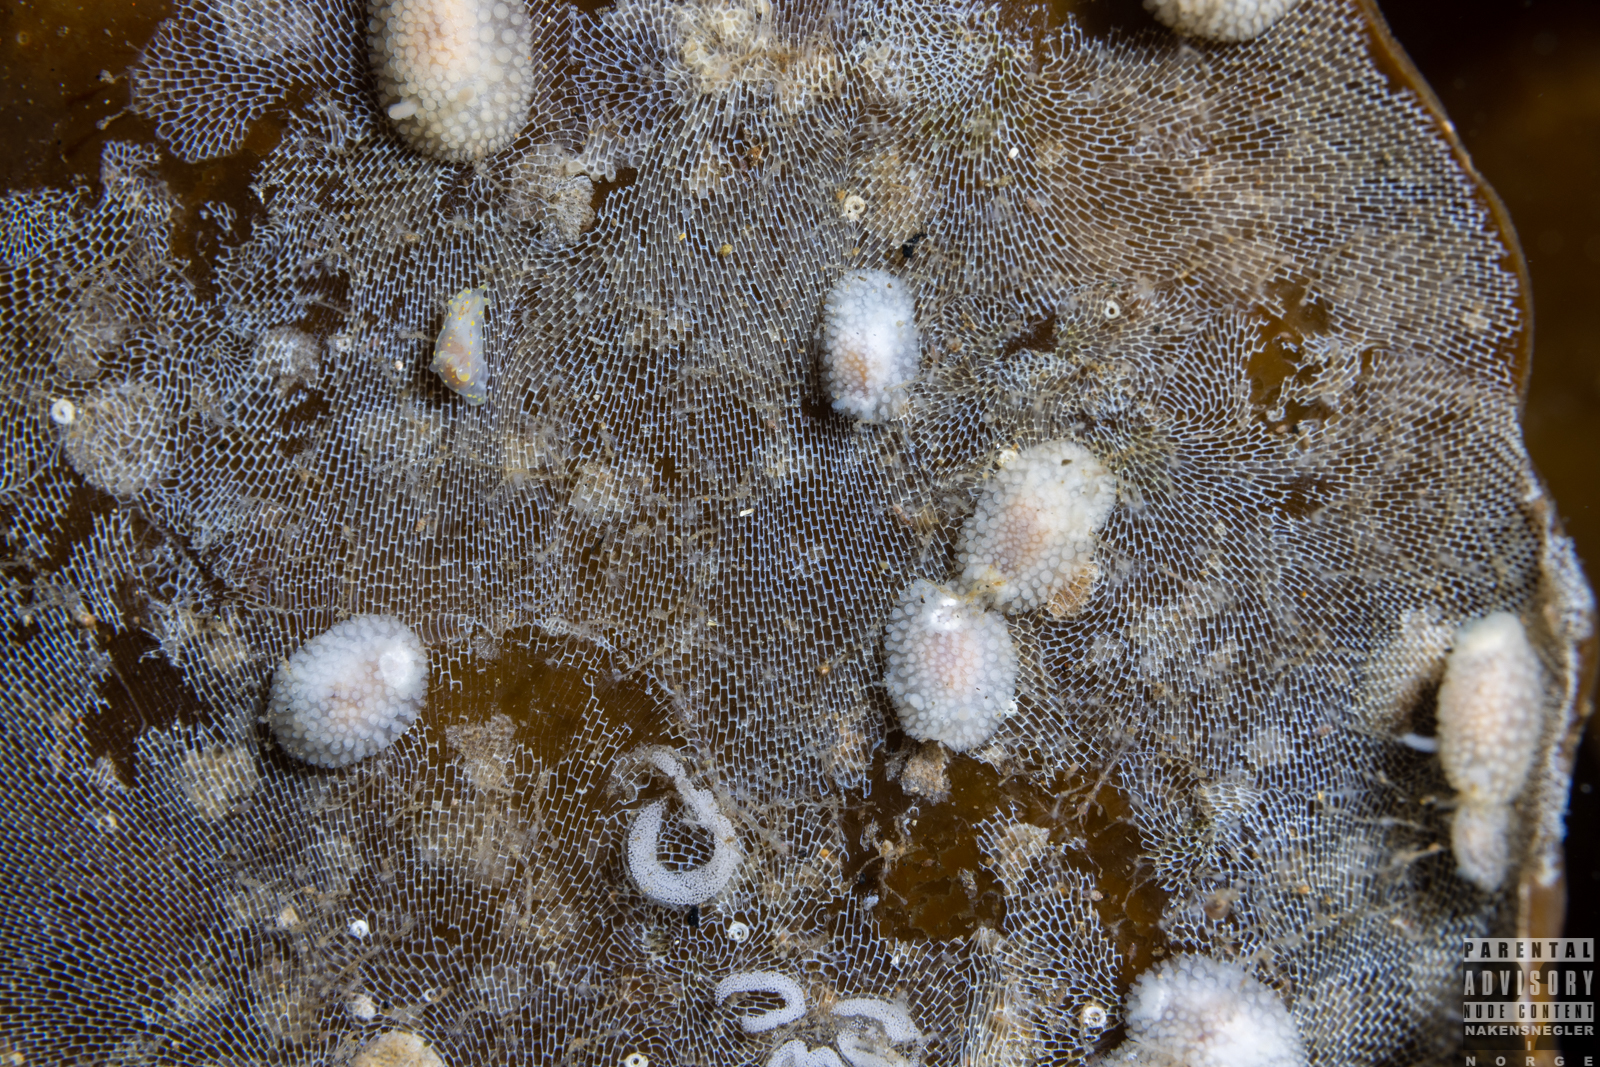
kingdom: Animalia
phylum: Mollusca
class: Gastropoda
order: Nudibranchia
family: Onchidorididae
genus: Onchidoris
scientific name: Onchidoris muricata
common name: Rough doris
